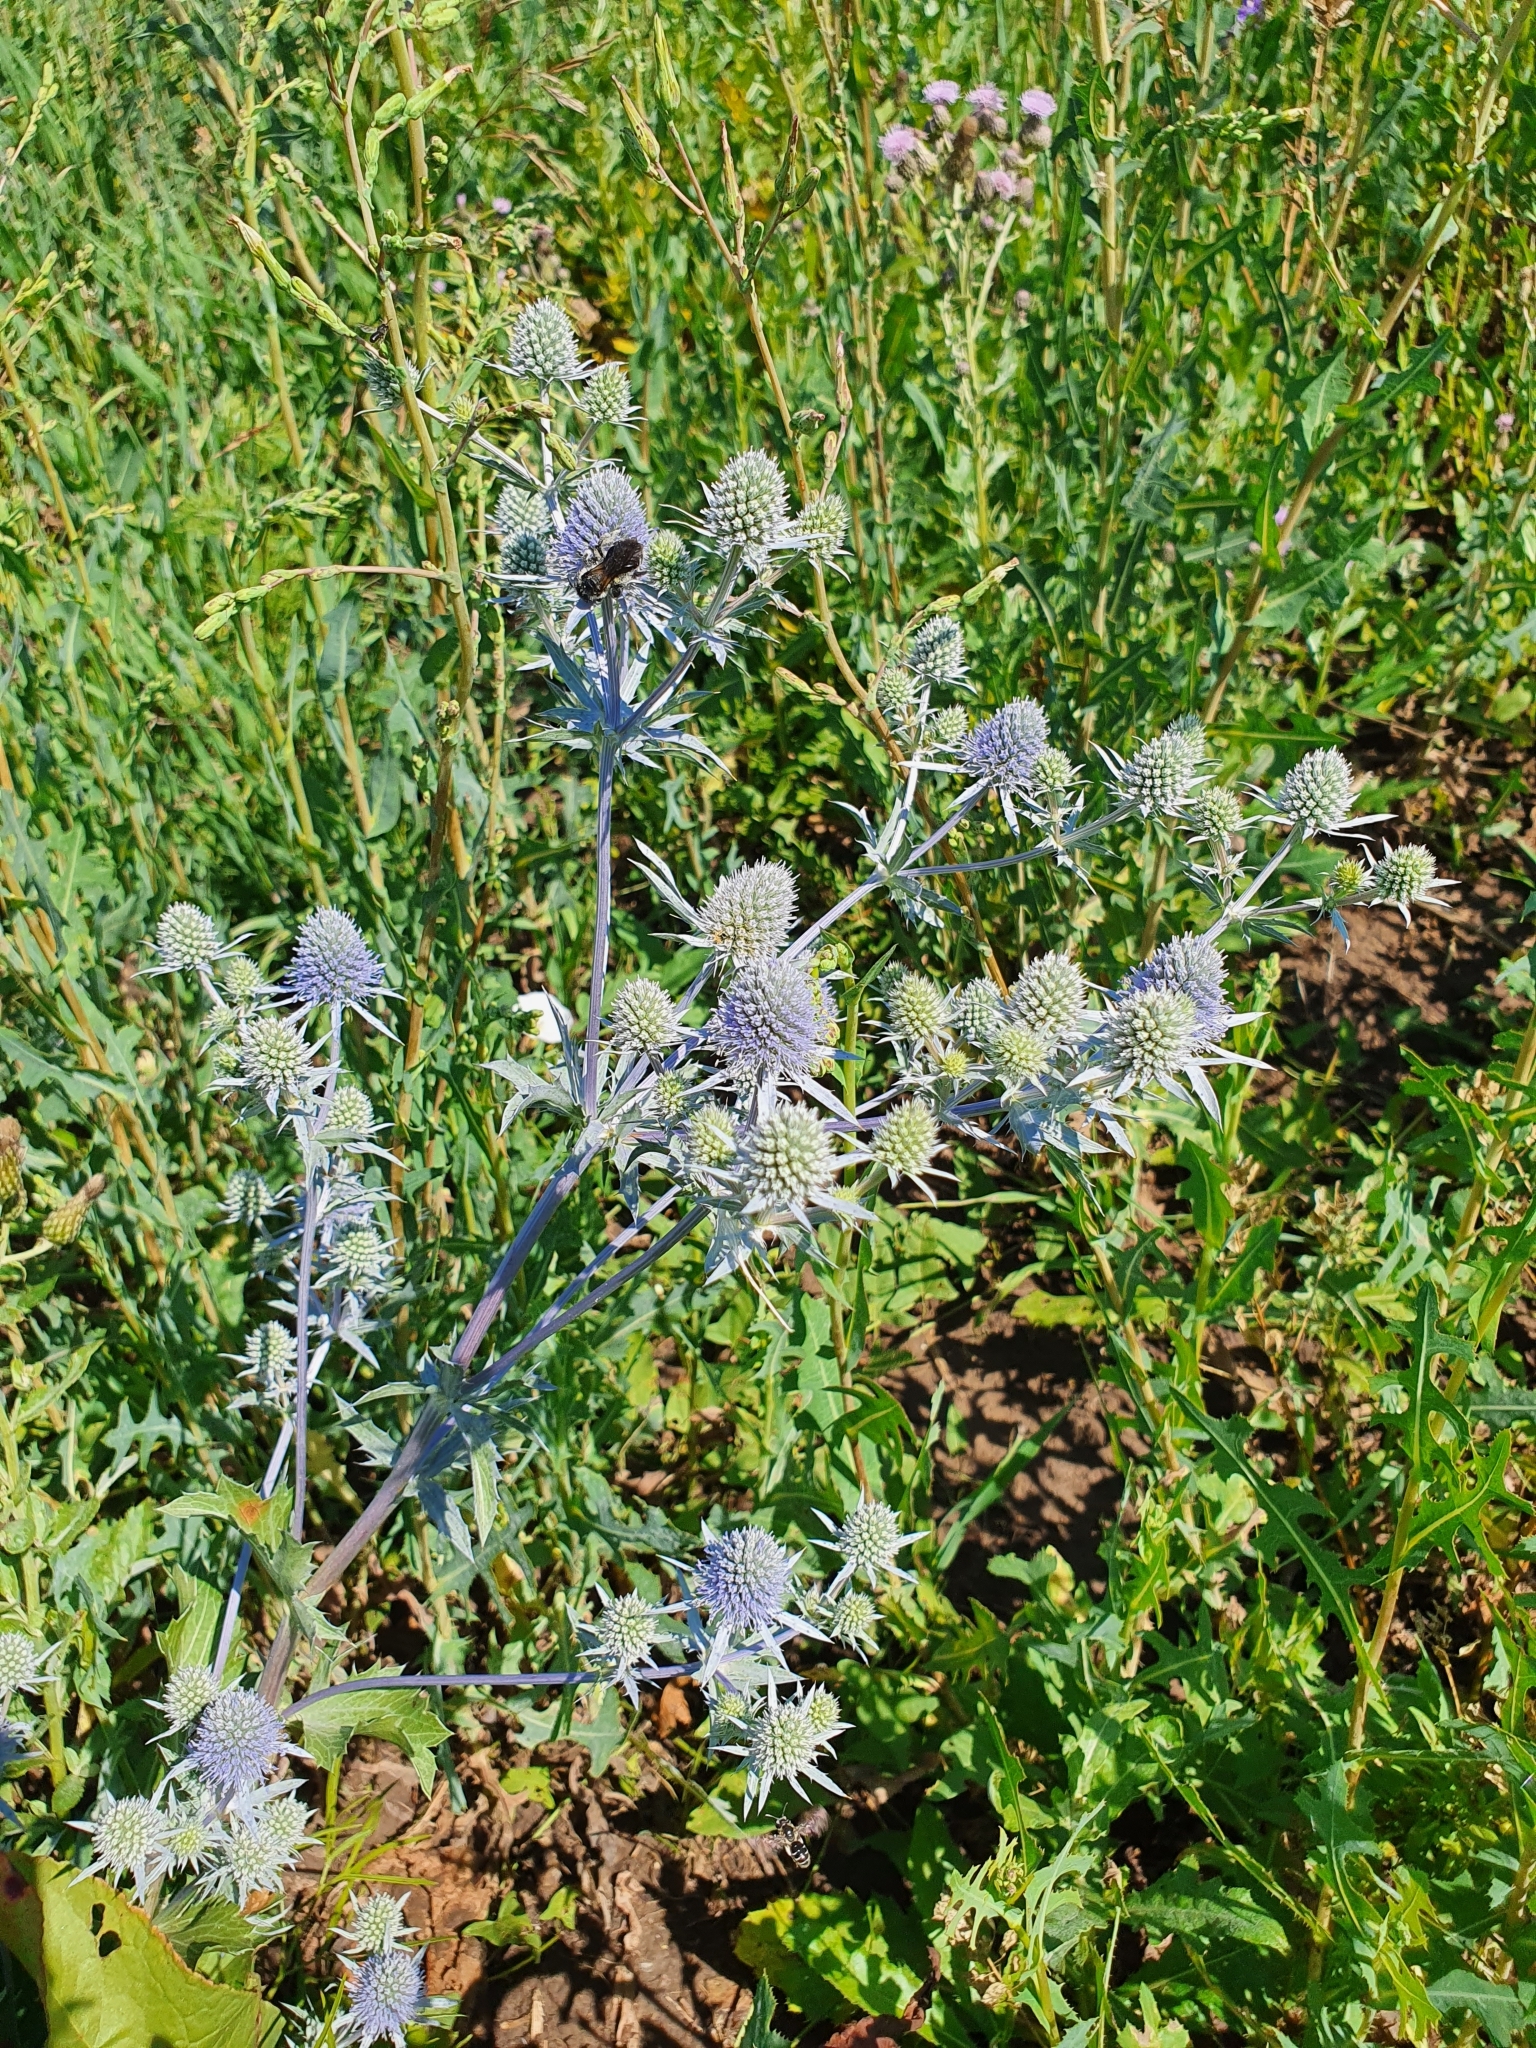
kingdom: Plantae
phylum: Tracheophyta
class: Magnoliopsida
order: Apiales
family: Apiaceae
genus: Eryngium
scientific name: Eryngium planum
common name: Blue eryngo
